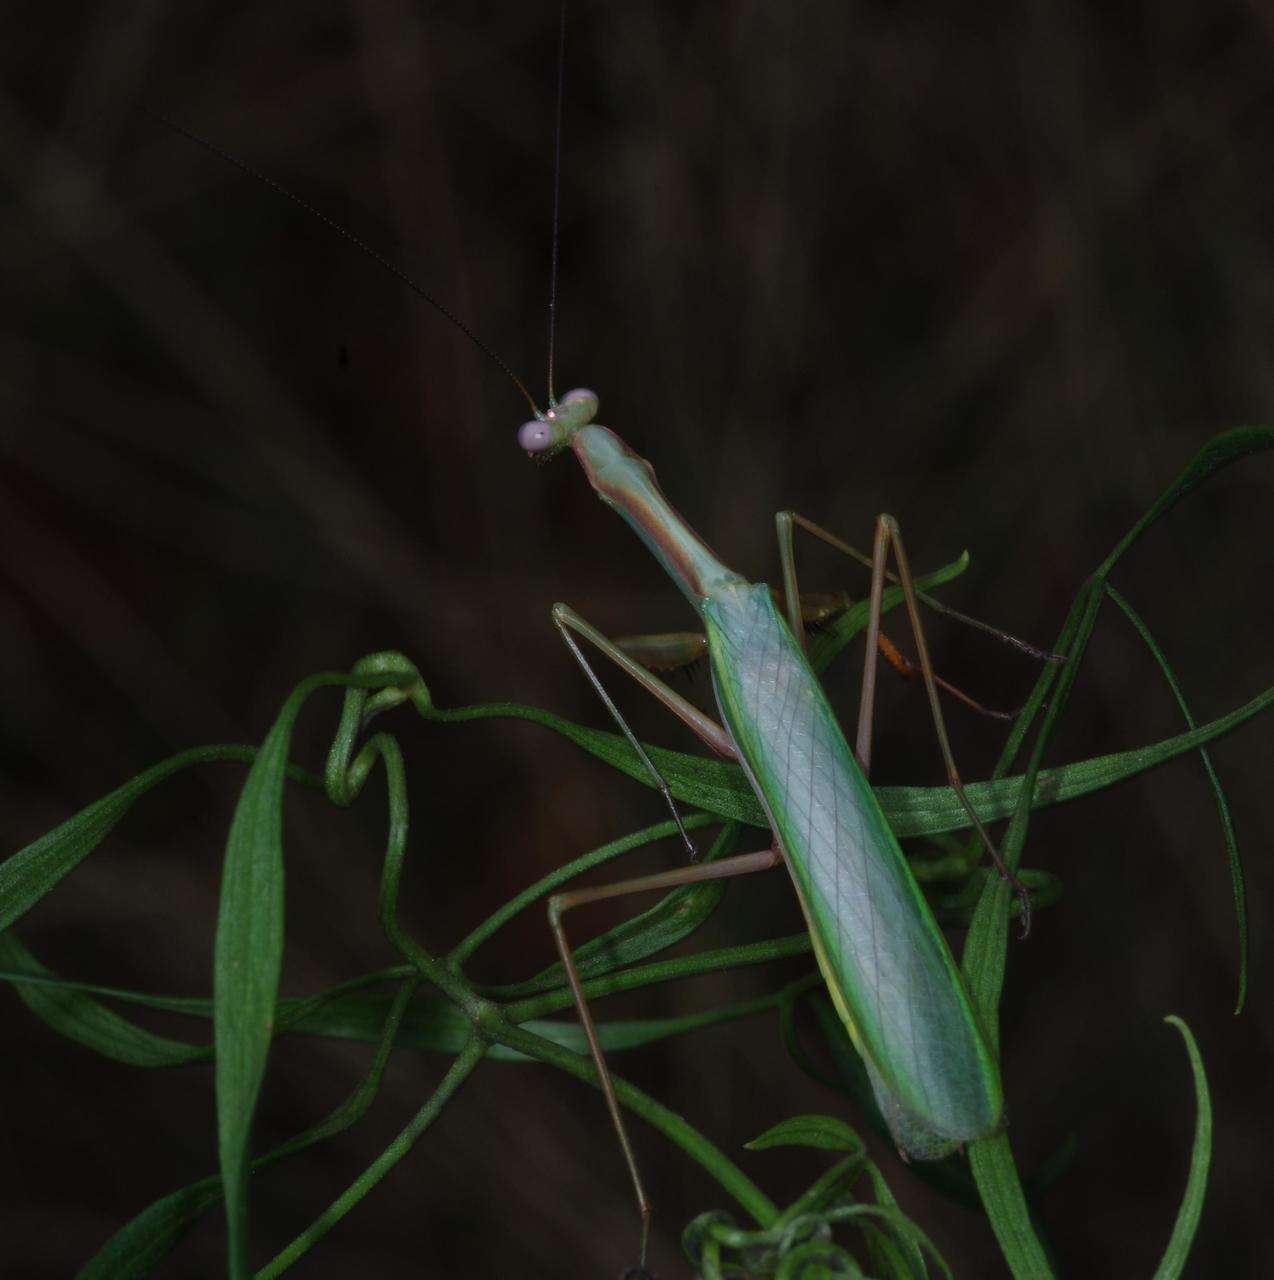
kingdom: Animalia
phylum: Arthropoda
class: Insecta
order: Mantodea
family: Mantidae
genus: Pseudomantis
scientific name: Pseudomantis albofimbriata
